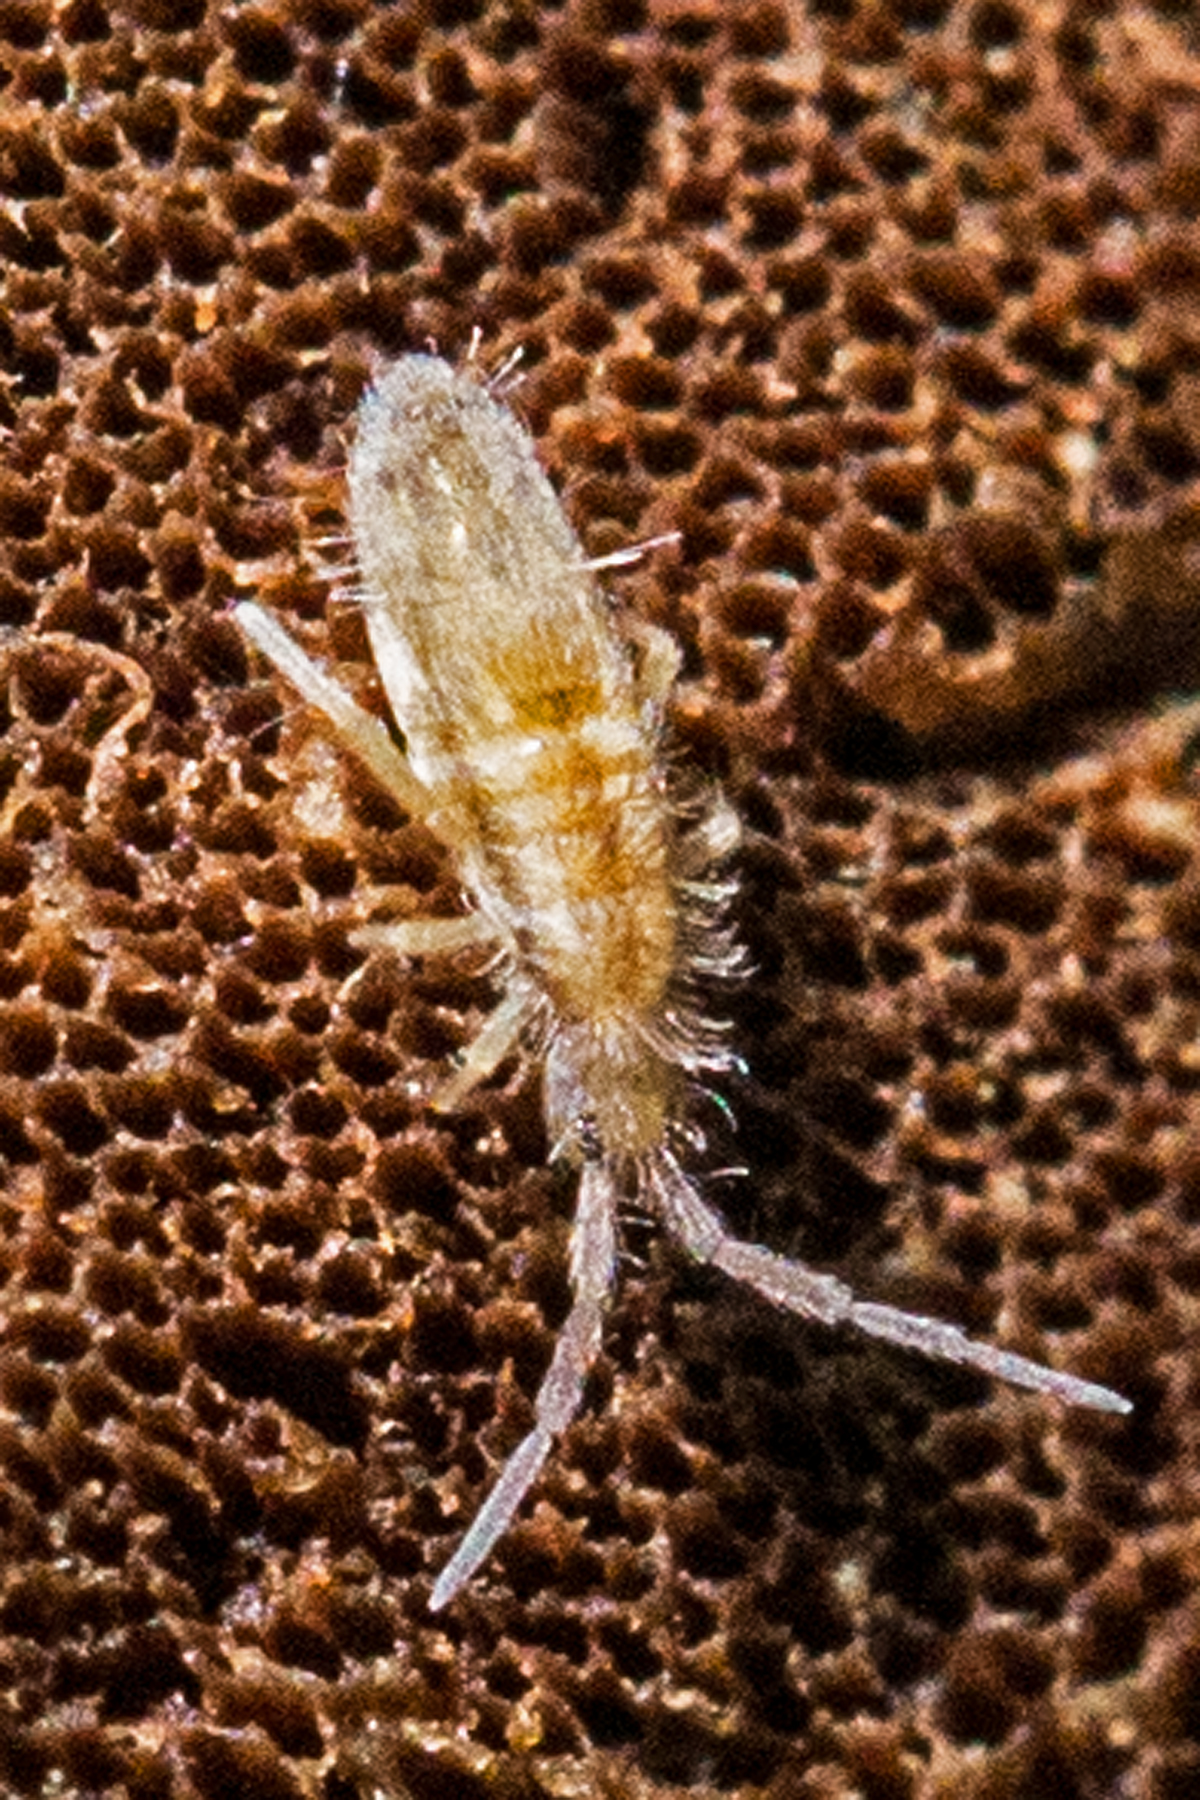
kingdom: Animalia
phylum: Arthropoda
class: Collembola
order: Entomobryomorpha
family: Entomobryidae
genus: Homidia
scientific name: Homidia socia
